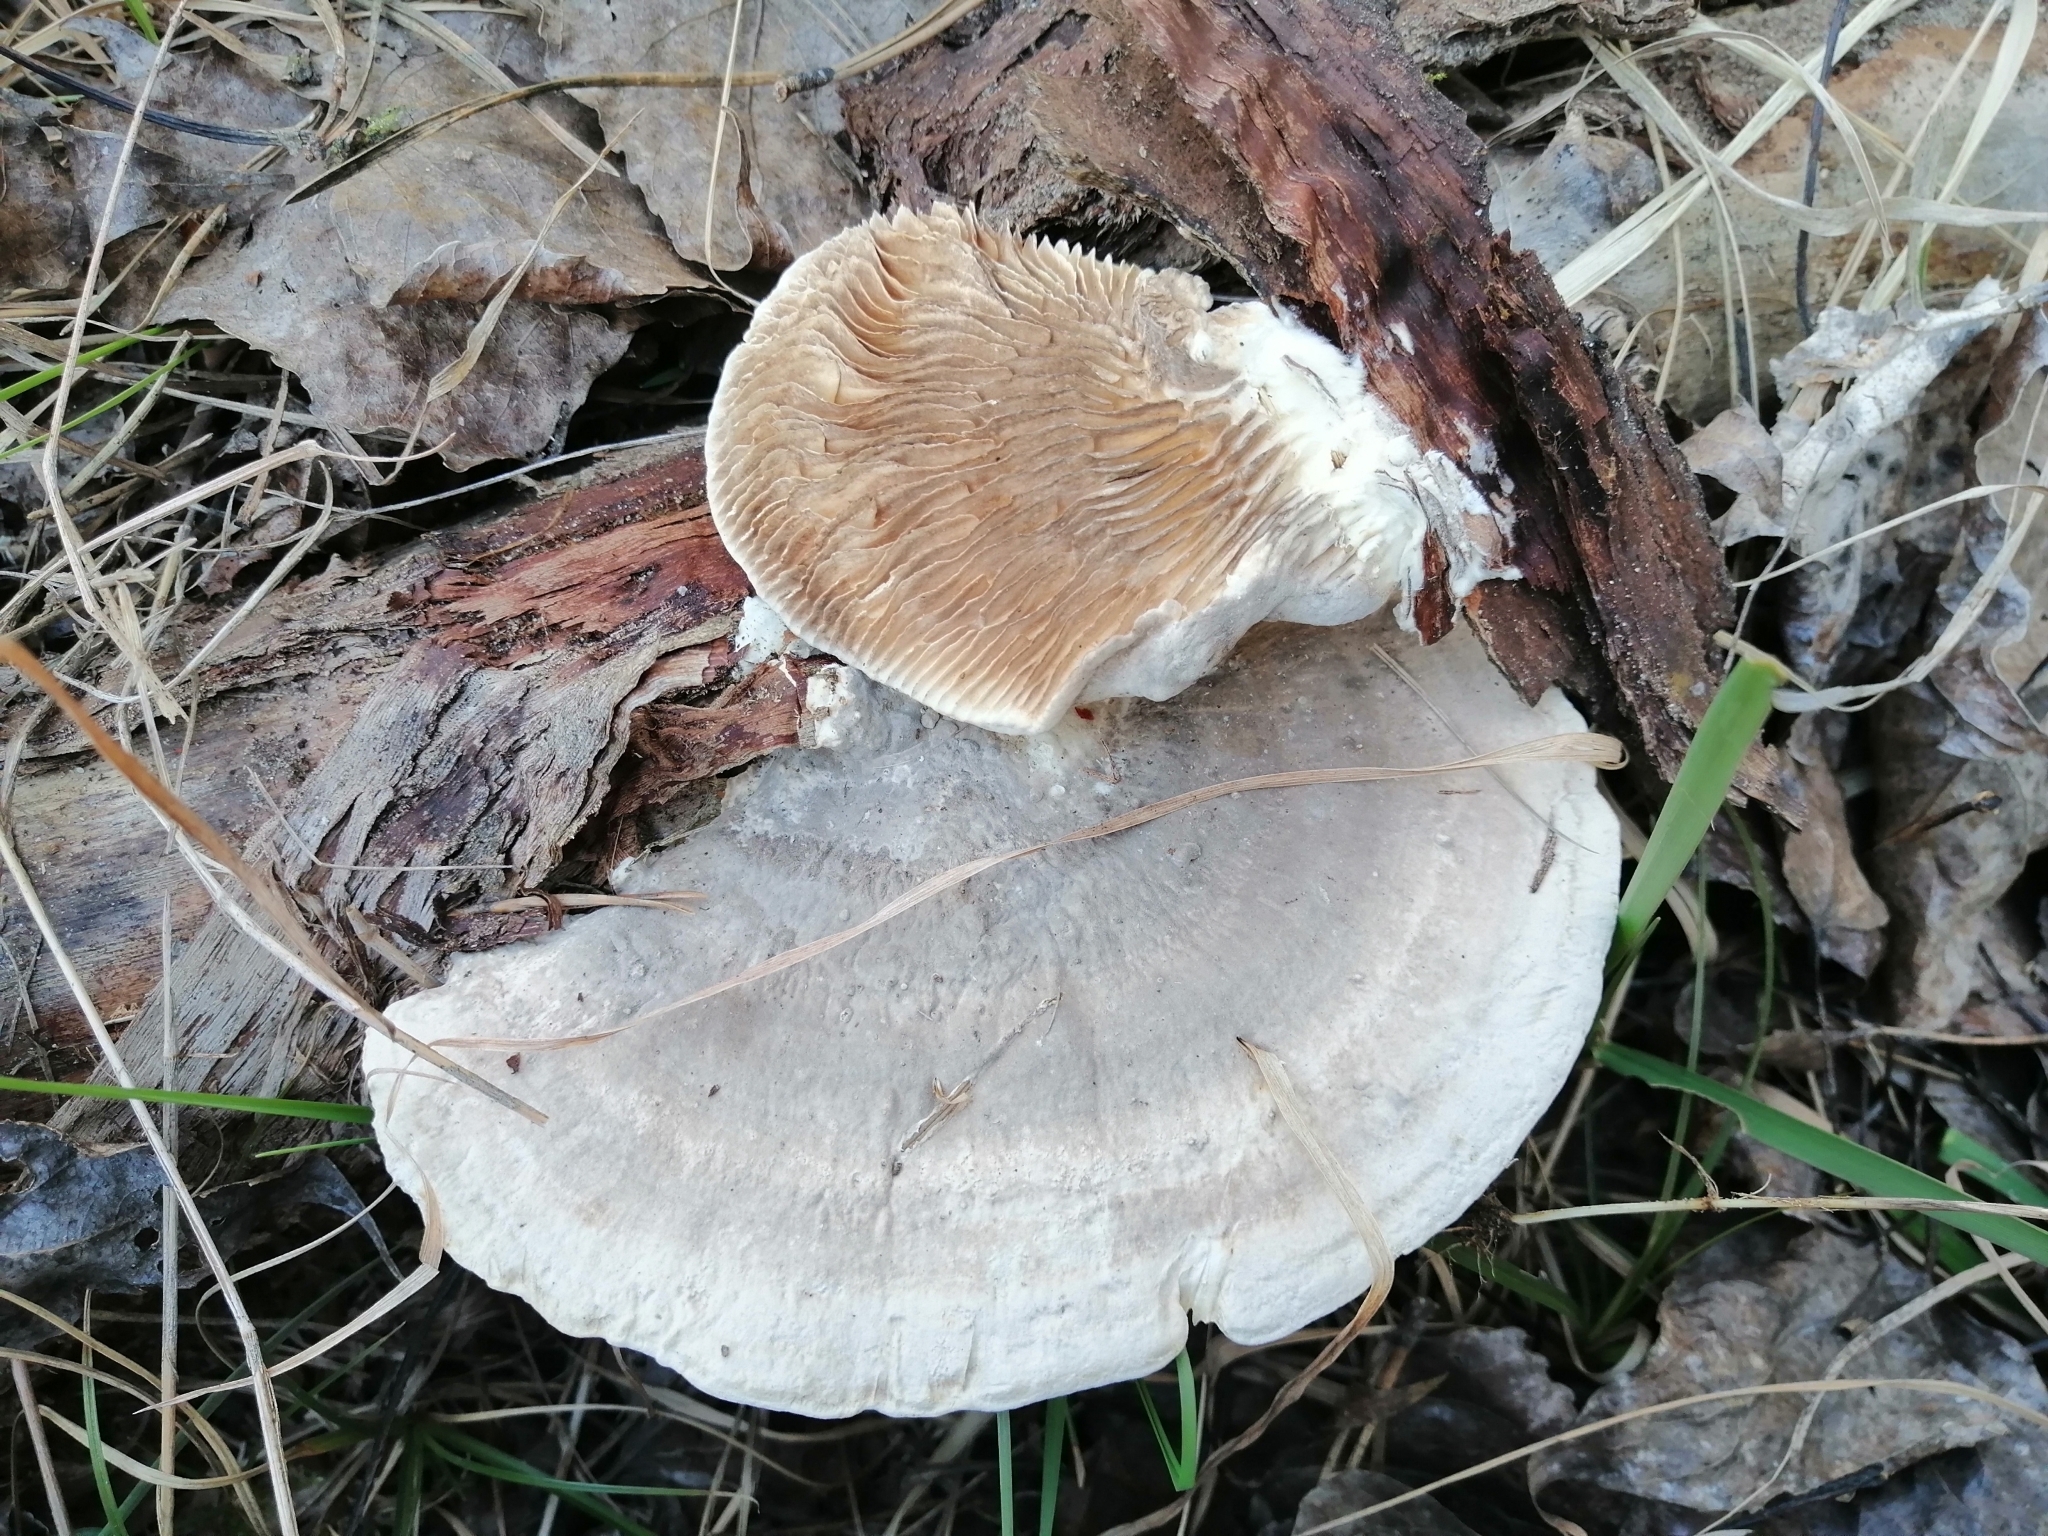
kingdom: Fungi
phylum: Basidiomycota
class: Agaricomycetes
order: Polyporales
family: Polyporaceae
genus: Lenzites
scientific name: Lenzites betulinus
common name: Birch mazegill
